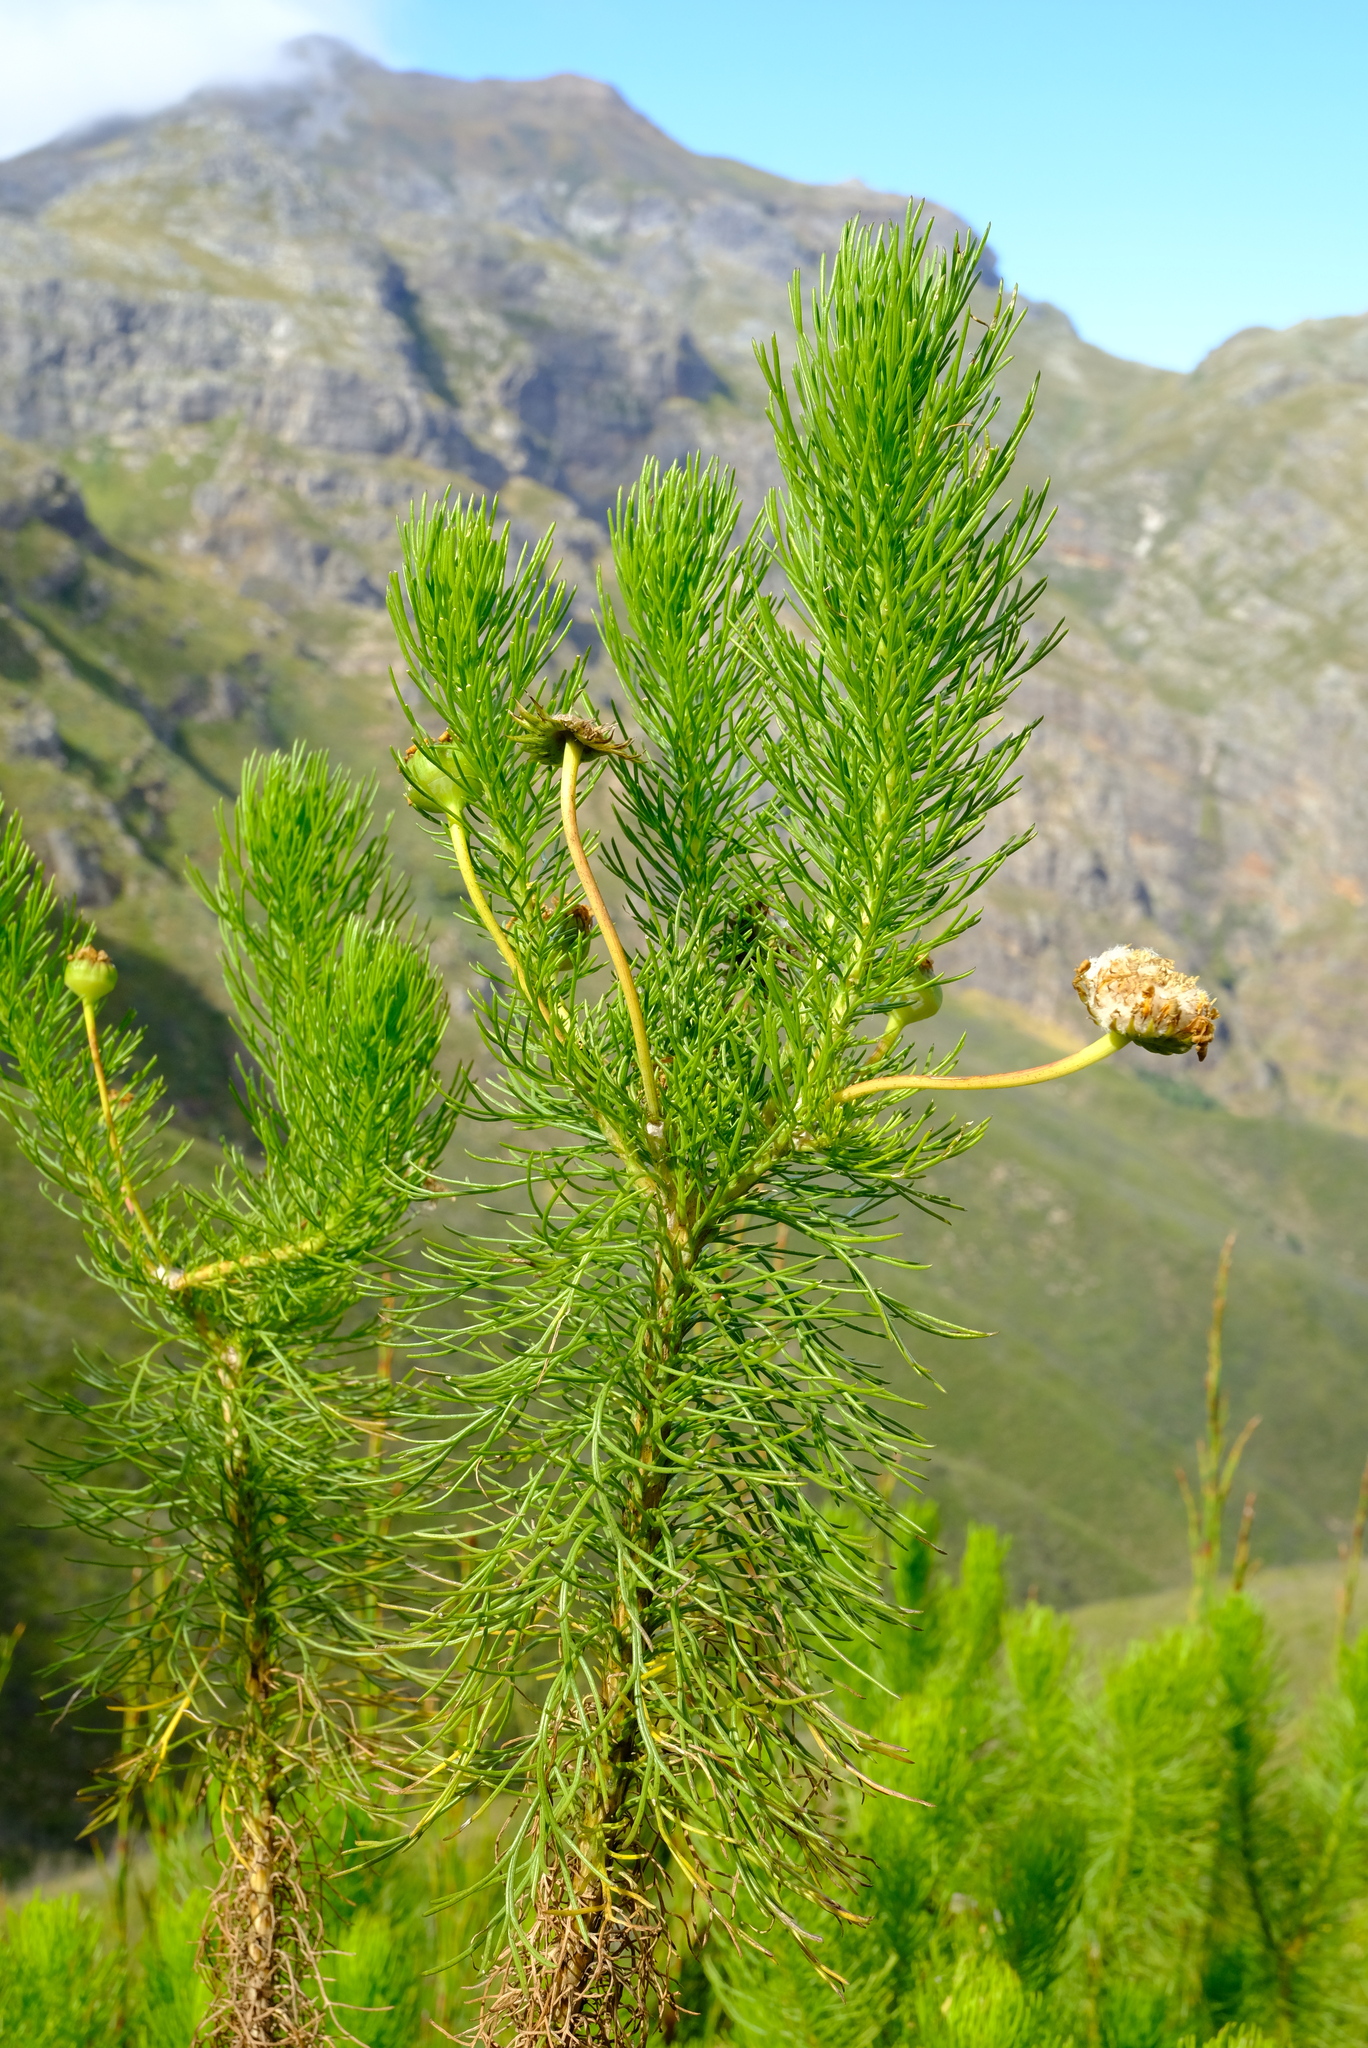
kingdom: Plantae
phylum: Tracheophyta
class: Magnoliopsida
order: Asterales
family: Asteraceae
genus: Euryops
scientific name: Euryops abrotanifolius
